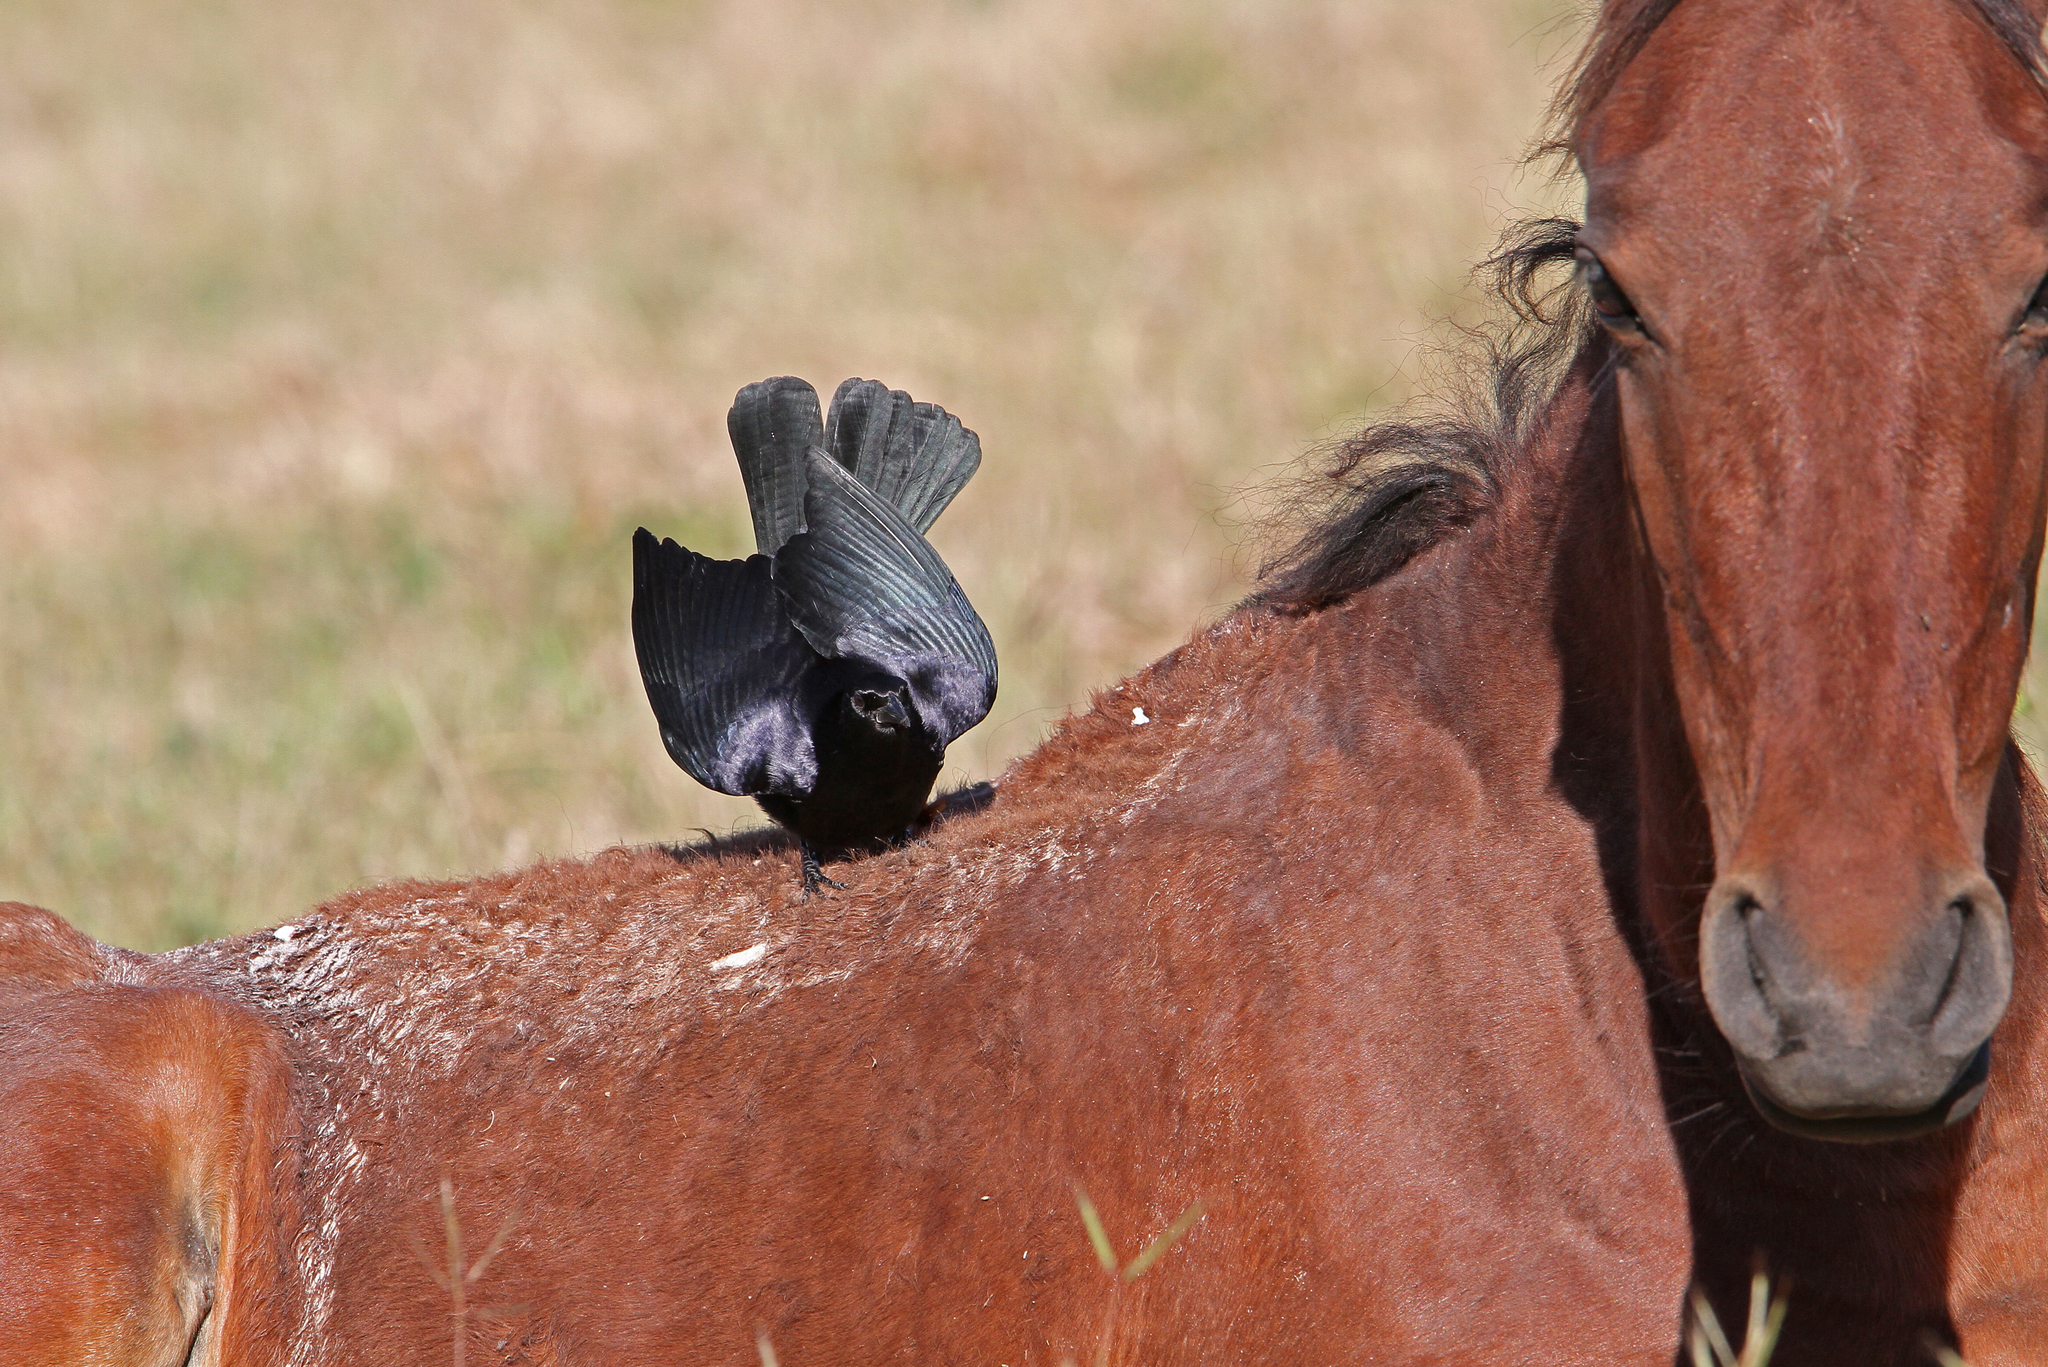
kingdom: Animalia
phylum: Chordata
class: Aves
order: Passeriformes
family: Icteridae
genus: Dives
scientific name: Dives atroviolaceus
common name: Cuban blackbird
